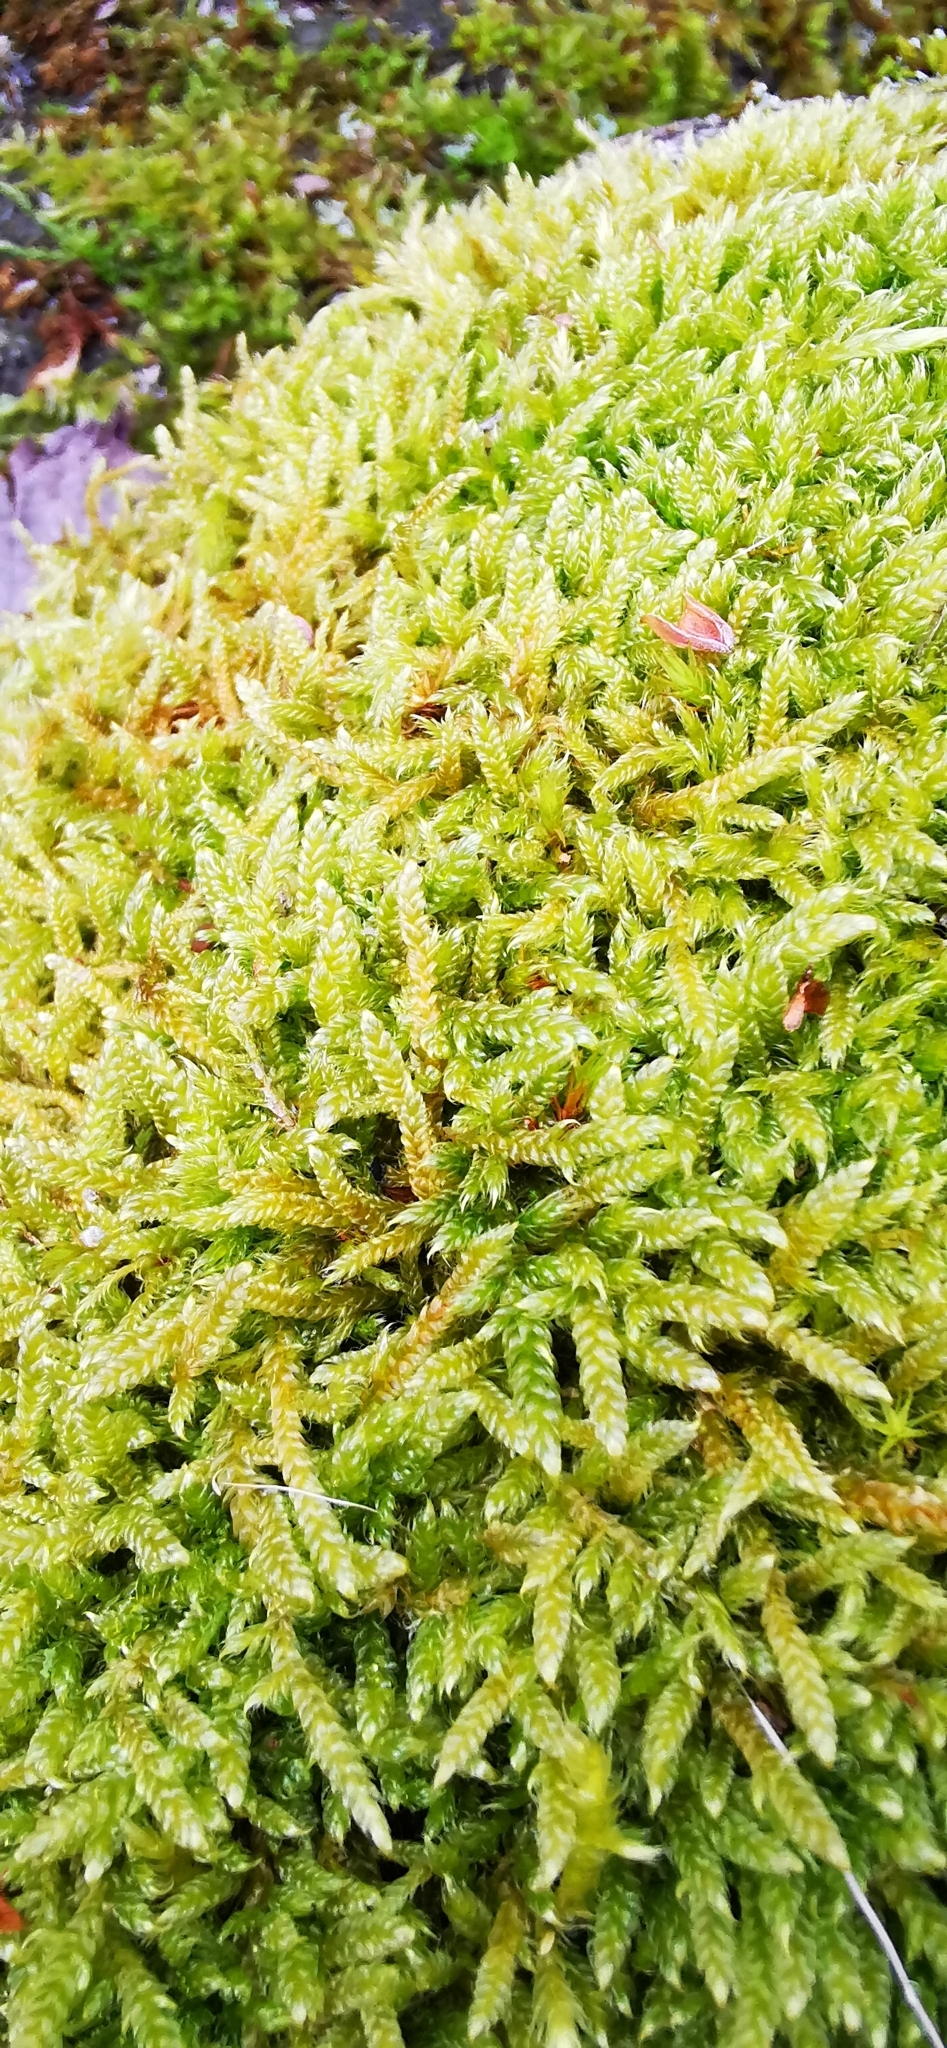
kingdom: Plantae
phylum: Bryophyta
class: Bryopsida
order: Hypnales
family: Hypnaceae
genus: Hypnum
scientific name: Hypnum cupressiforme
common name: Cypress-leaved plait-moss
